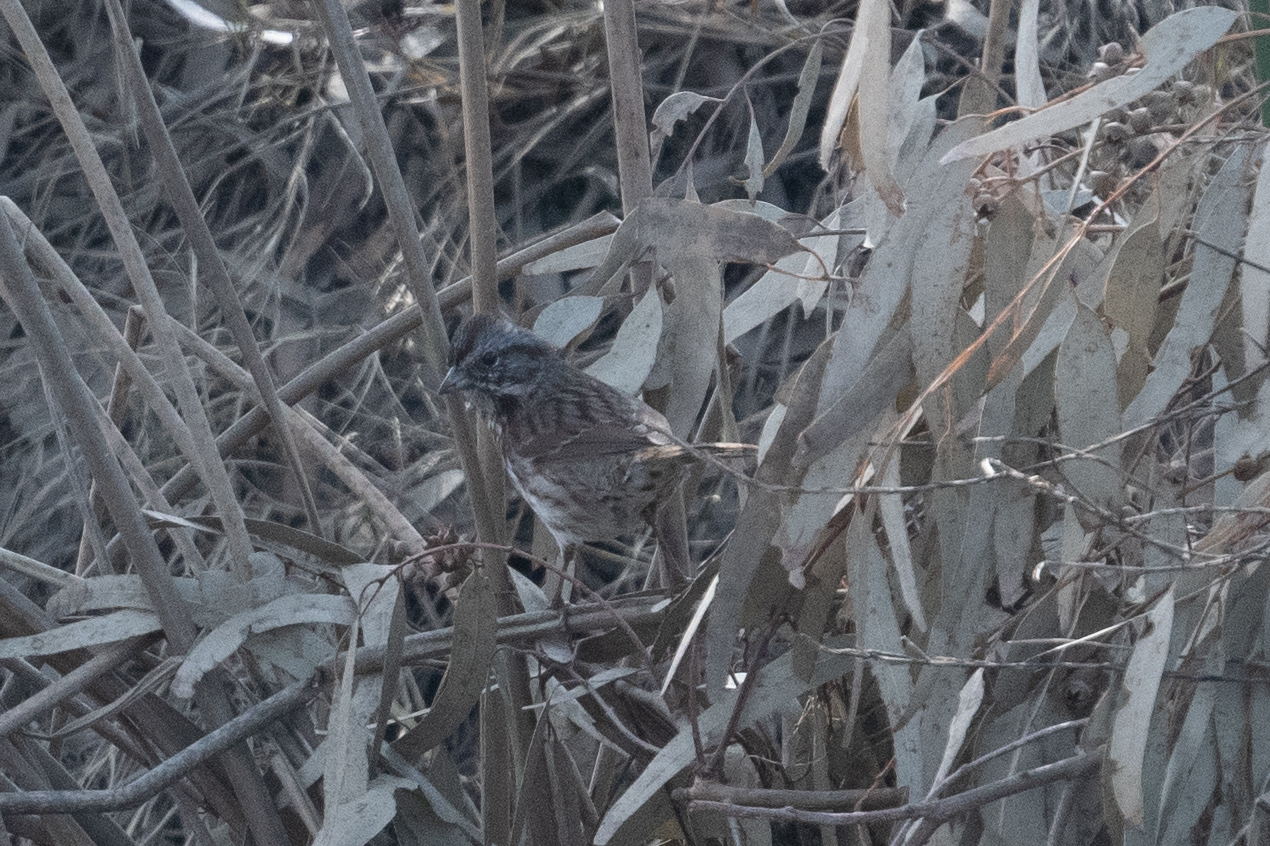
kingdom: Animalia
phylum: Chordata
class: Aves
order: Passeriformes
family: Passerellidae
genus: Melospiza
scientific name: Melospiza melodia
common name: Song sparrow
